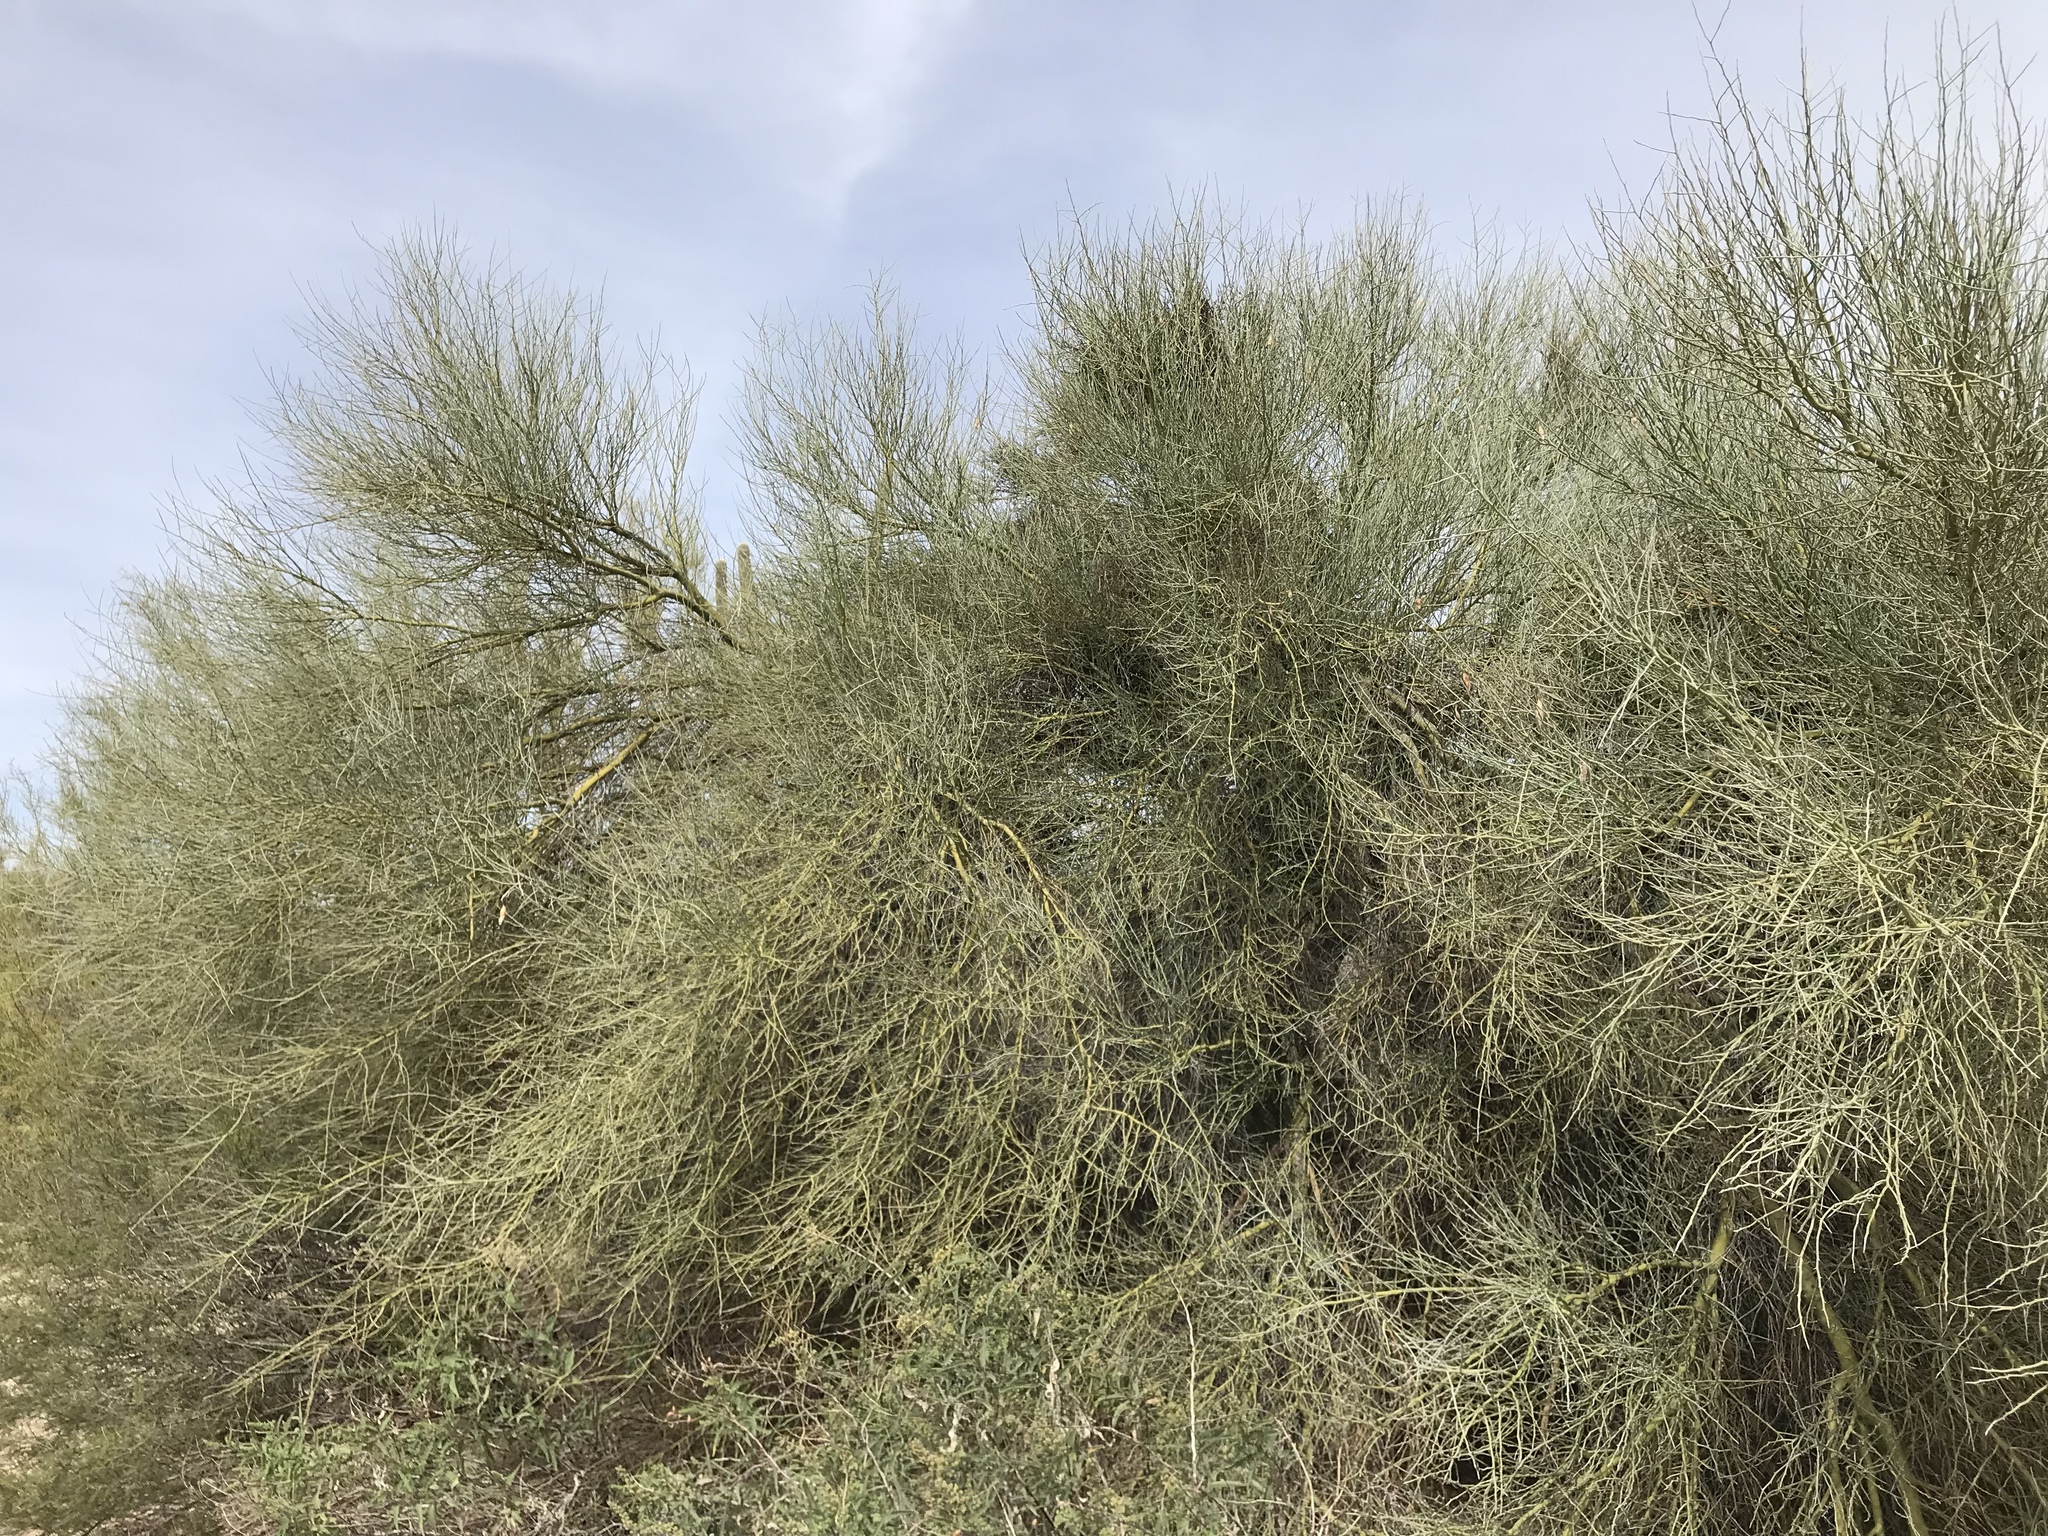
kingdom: Plantae
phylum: Tracheophyta
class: Magnoliopsida
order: Fabales
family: Fabaceae
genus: Parkinsonia
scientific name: Parkinsonia florida
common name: Blue paloverde
